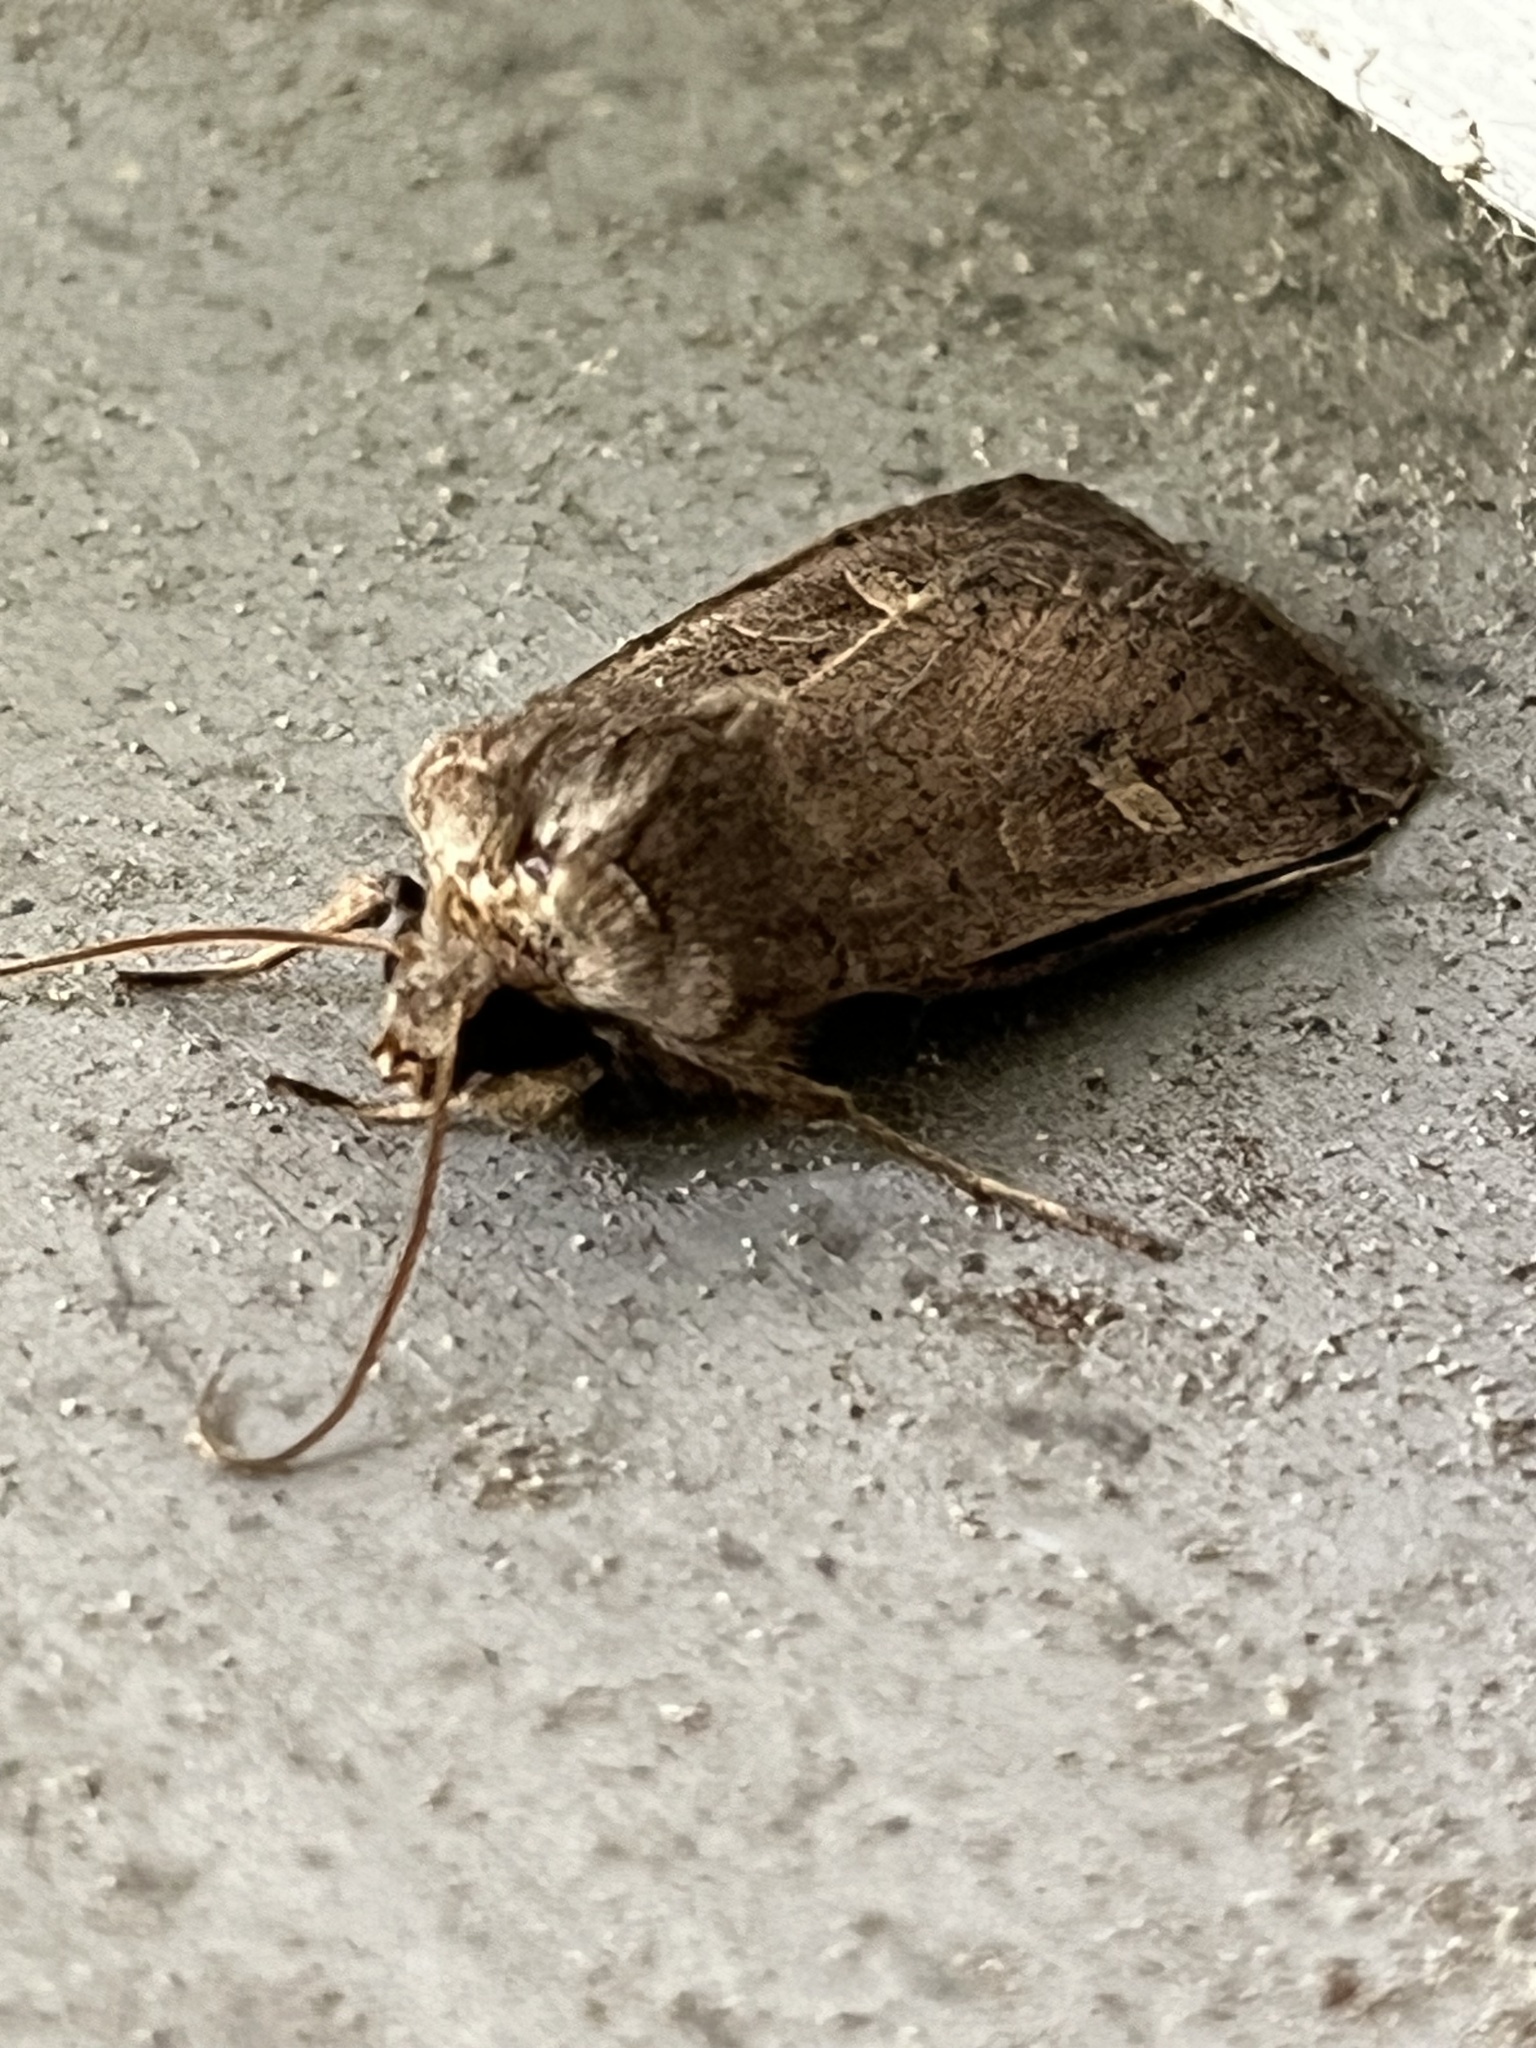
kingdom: Animalia
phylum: Arthropoda
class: Insecta
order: Lepidoptera
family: Noctuidae
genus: Xestia
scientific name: Xestia xanthographa
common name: Square-spot rustic
